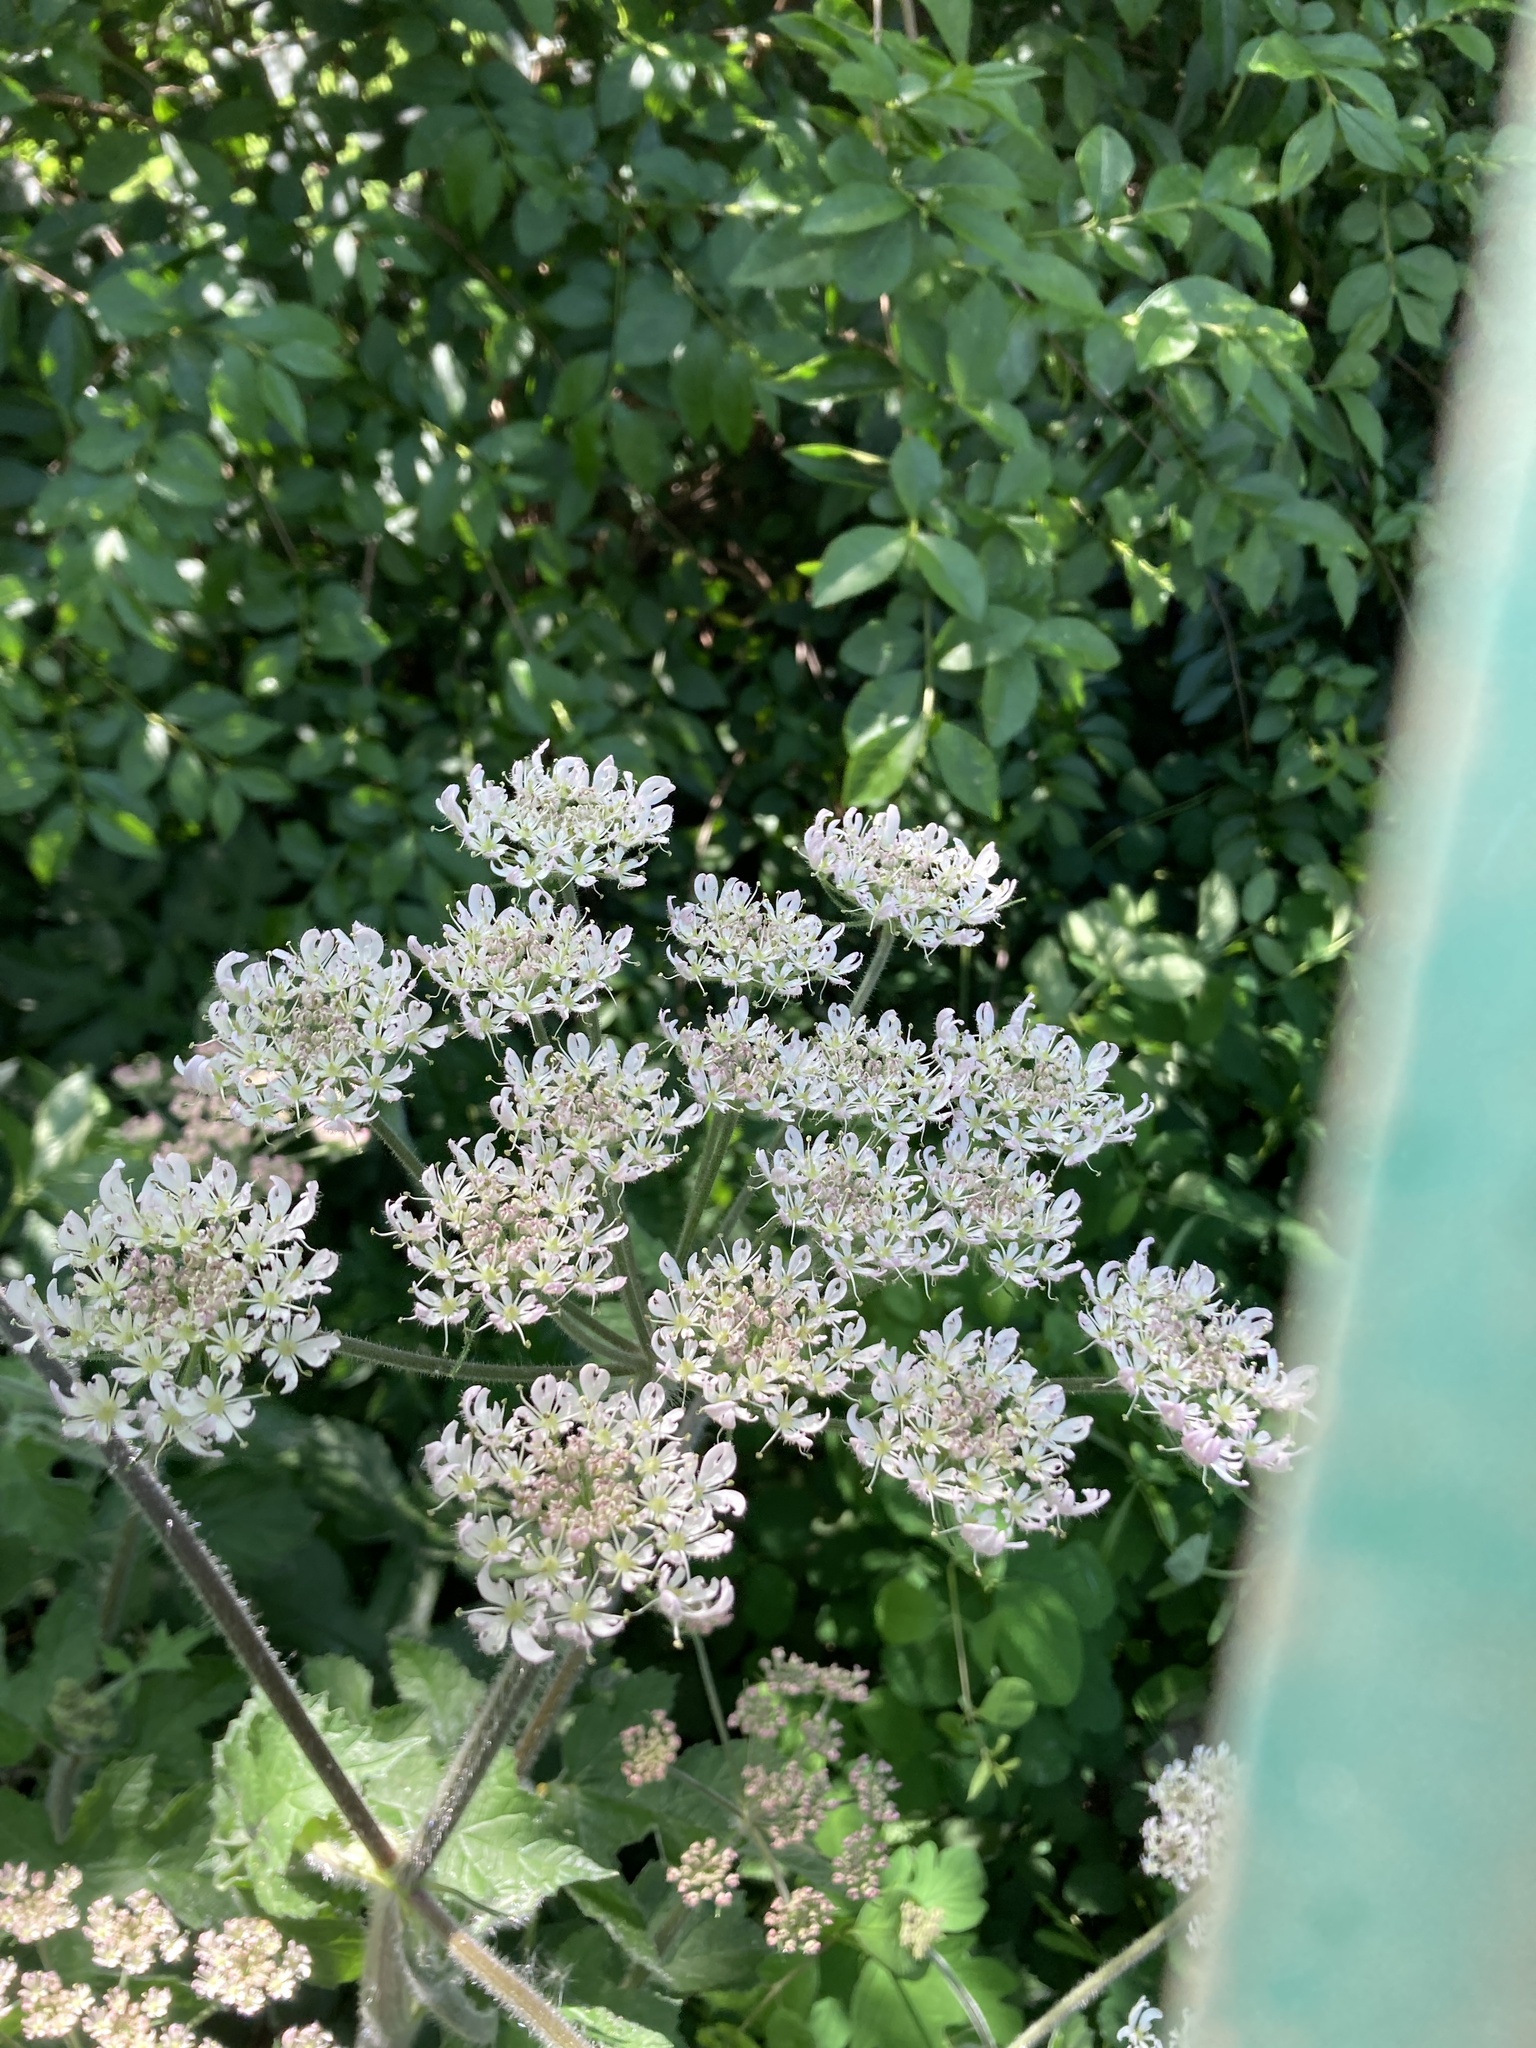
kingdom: Plantae
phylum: Tracheophyta
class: Magnoliopsida
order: Apiales
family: Apiaceae
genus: Heracleum
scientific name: Heracleum sphondylium
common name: Hogweed
